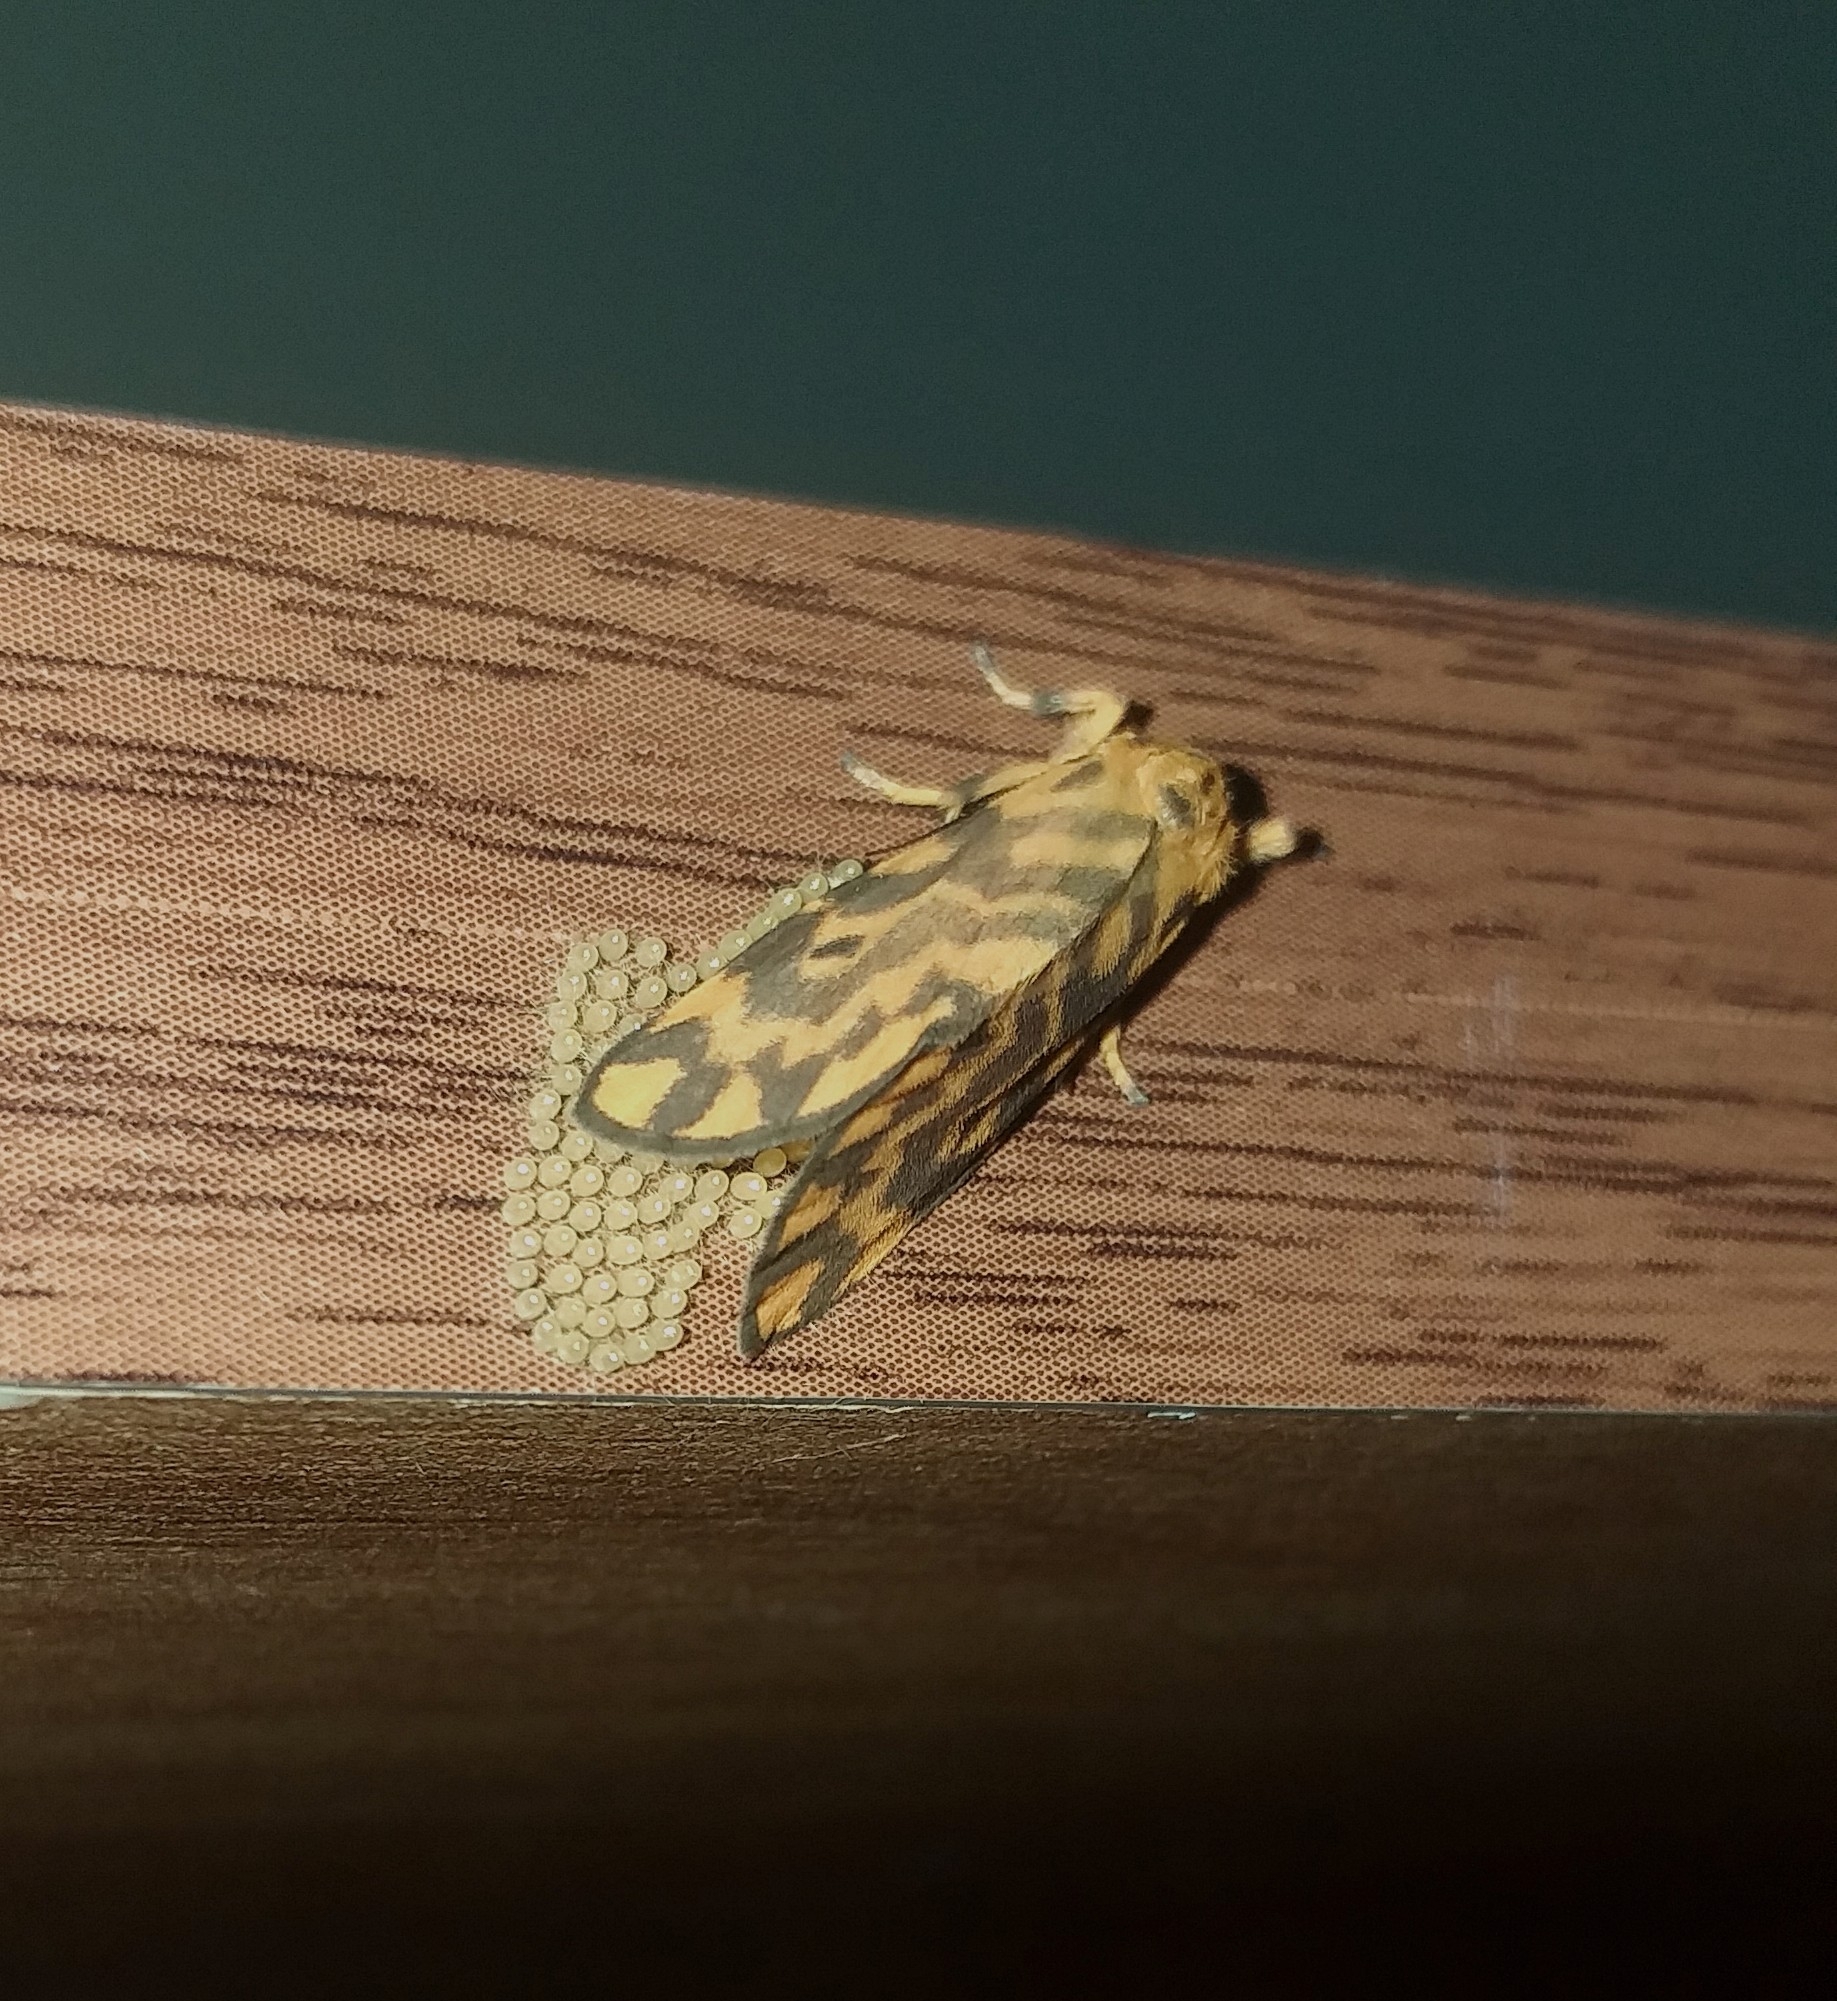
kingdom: Animalia
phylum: Arthropoda
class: Insecta
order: Lepidoptera
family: Erebidae
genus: Nepita
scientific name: Nepita conferta
